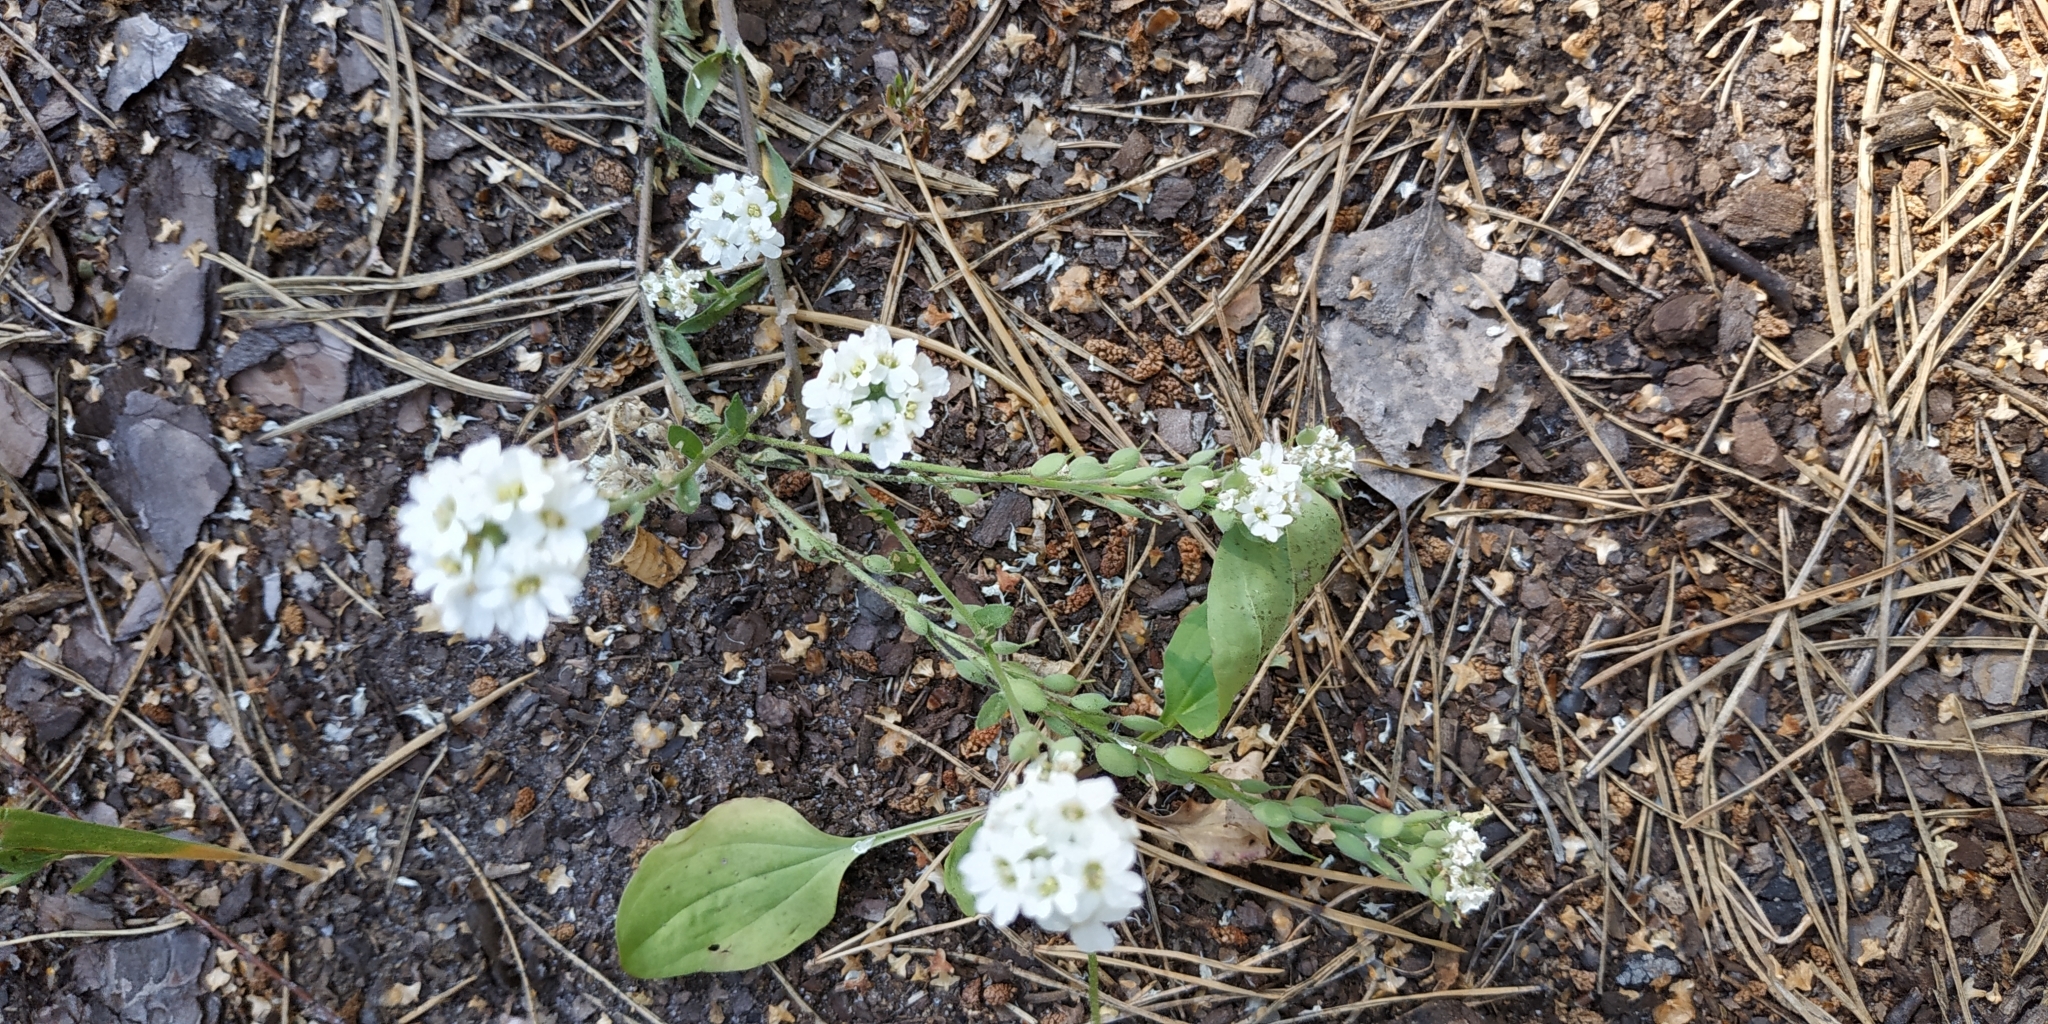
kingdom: Plantae
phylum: Tracheophyta
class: Magnoliopsida
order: Brassicales
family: Brassicaceae
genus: Berteroa
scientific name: Berteroa incana
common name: Hoary alison
